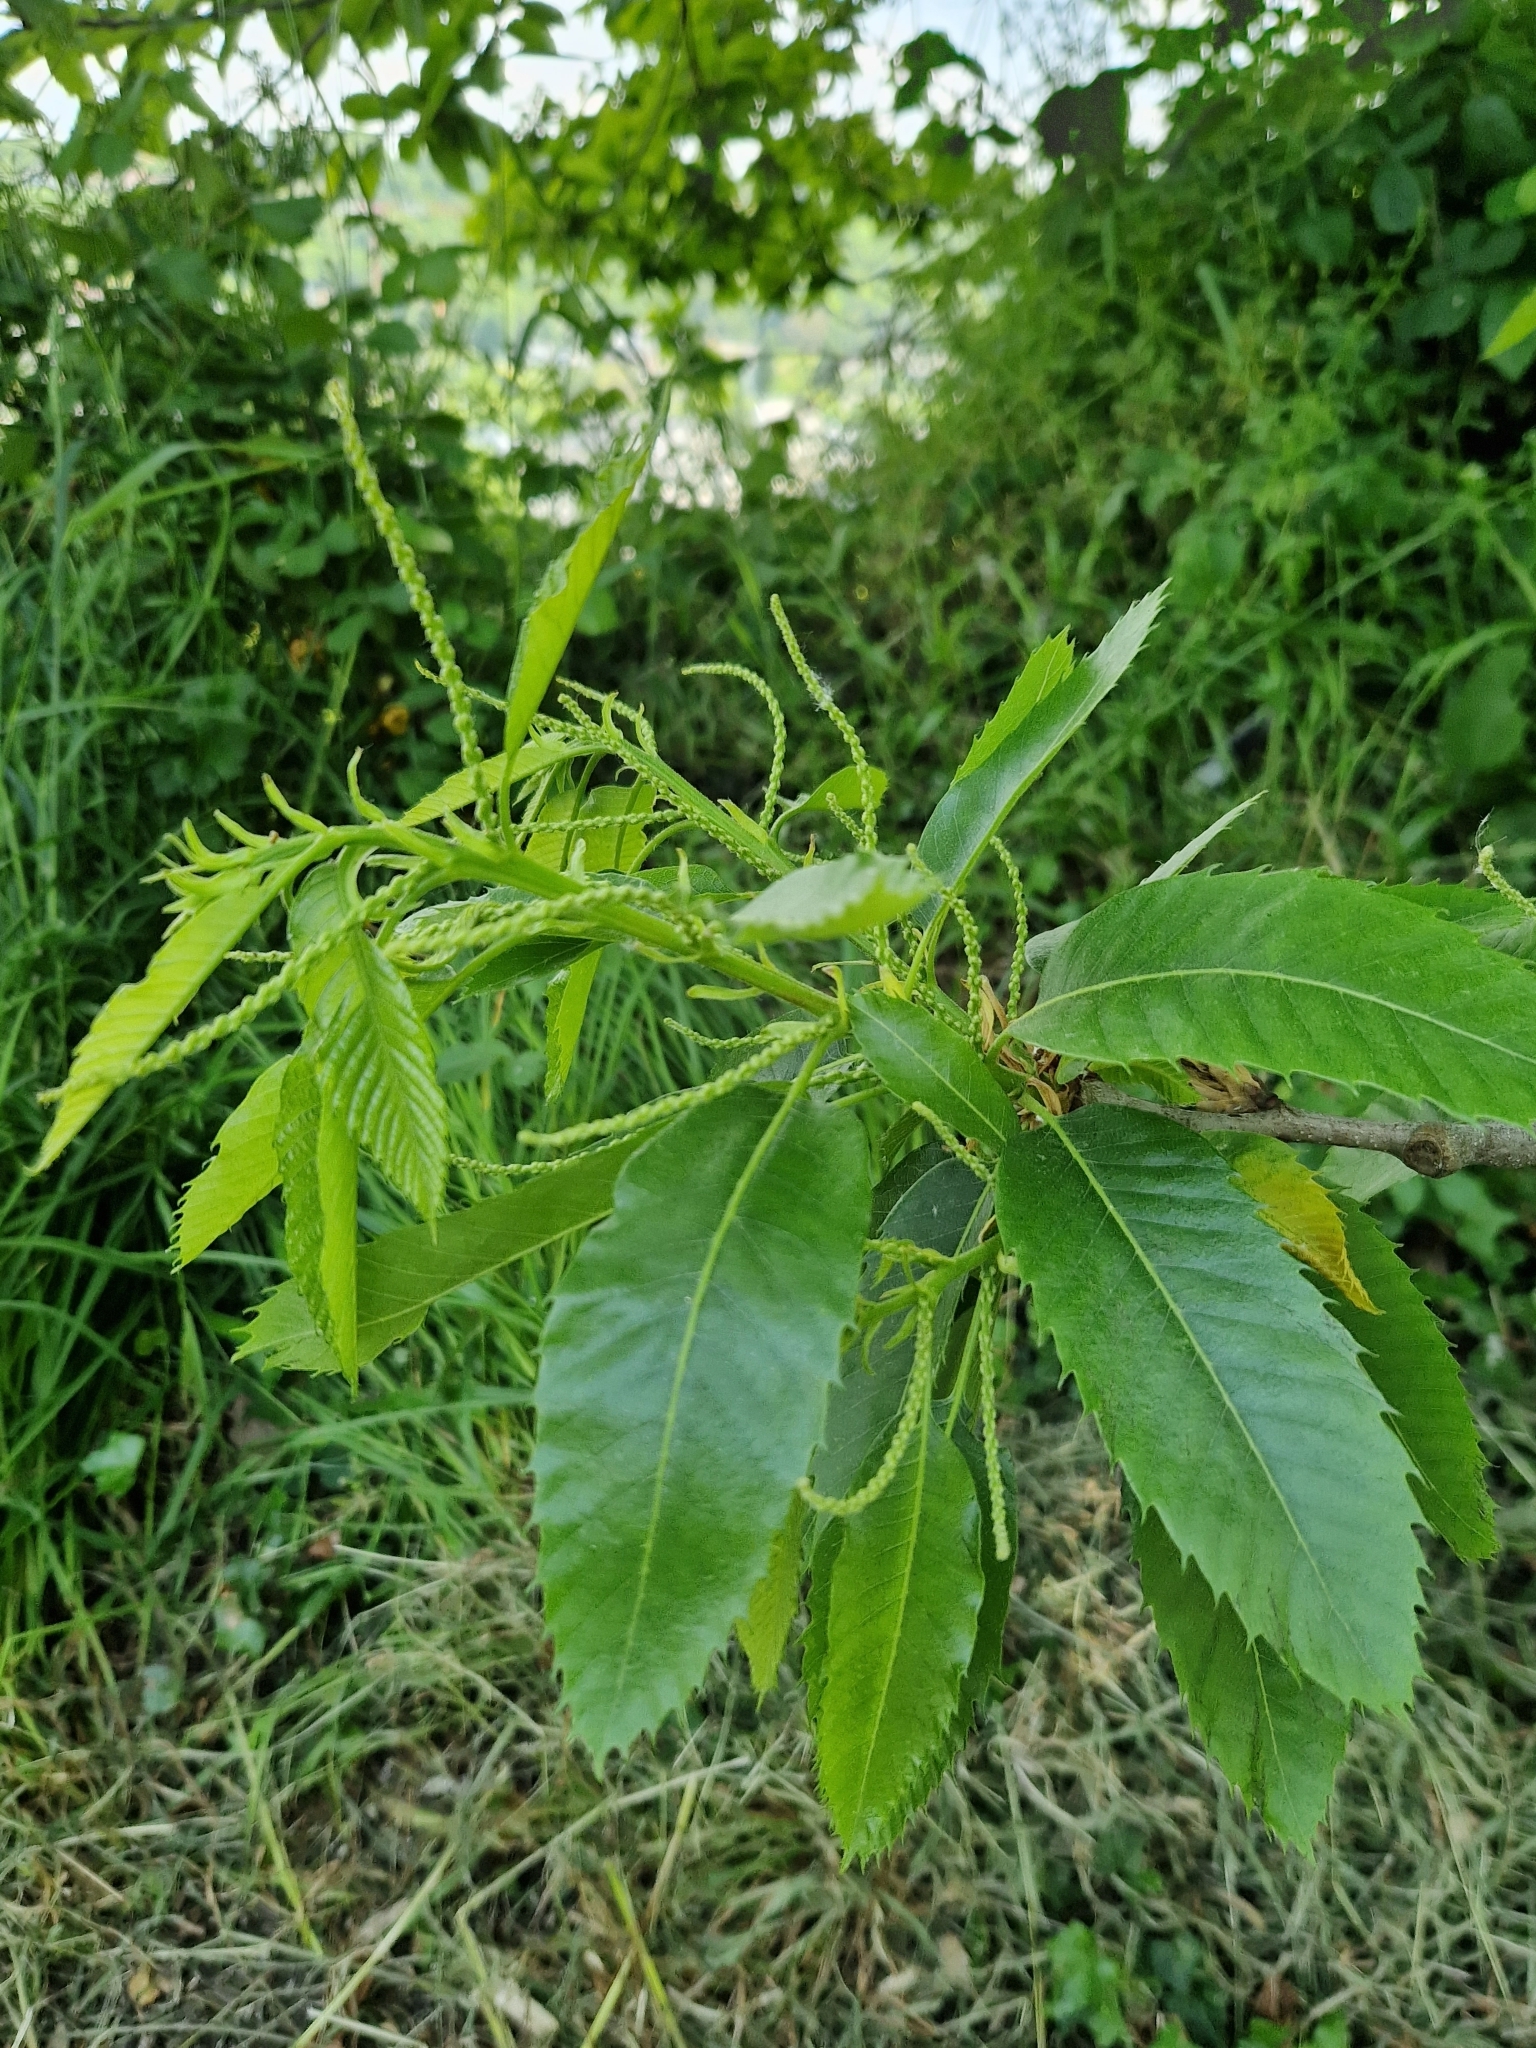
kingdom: Plantae
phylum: Tracheophyta
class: Magnoliopsida
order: Fagales
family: Fagaceae
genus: Castanea
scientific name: Castanea sativa
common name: Sweet chestnut
